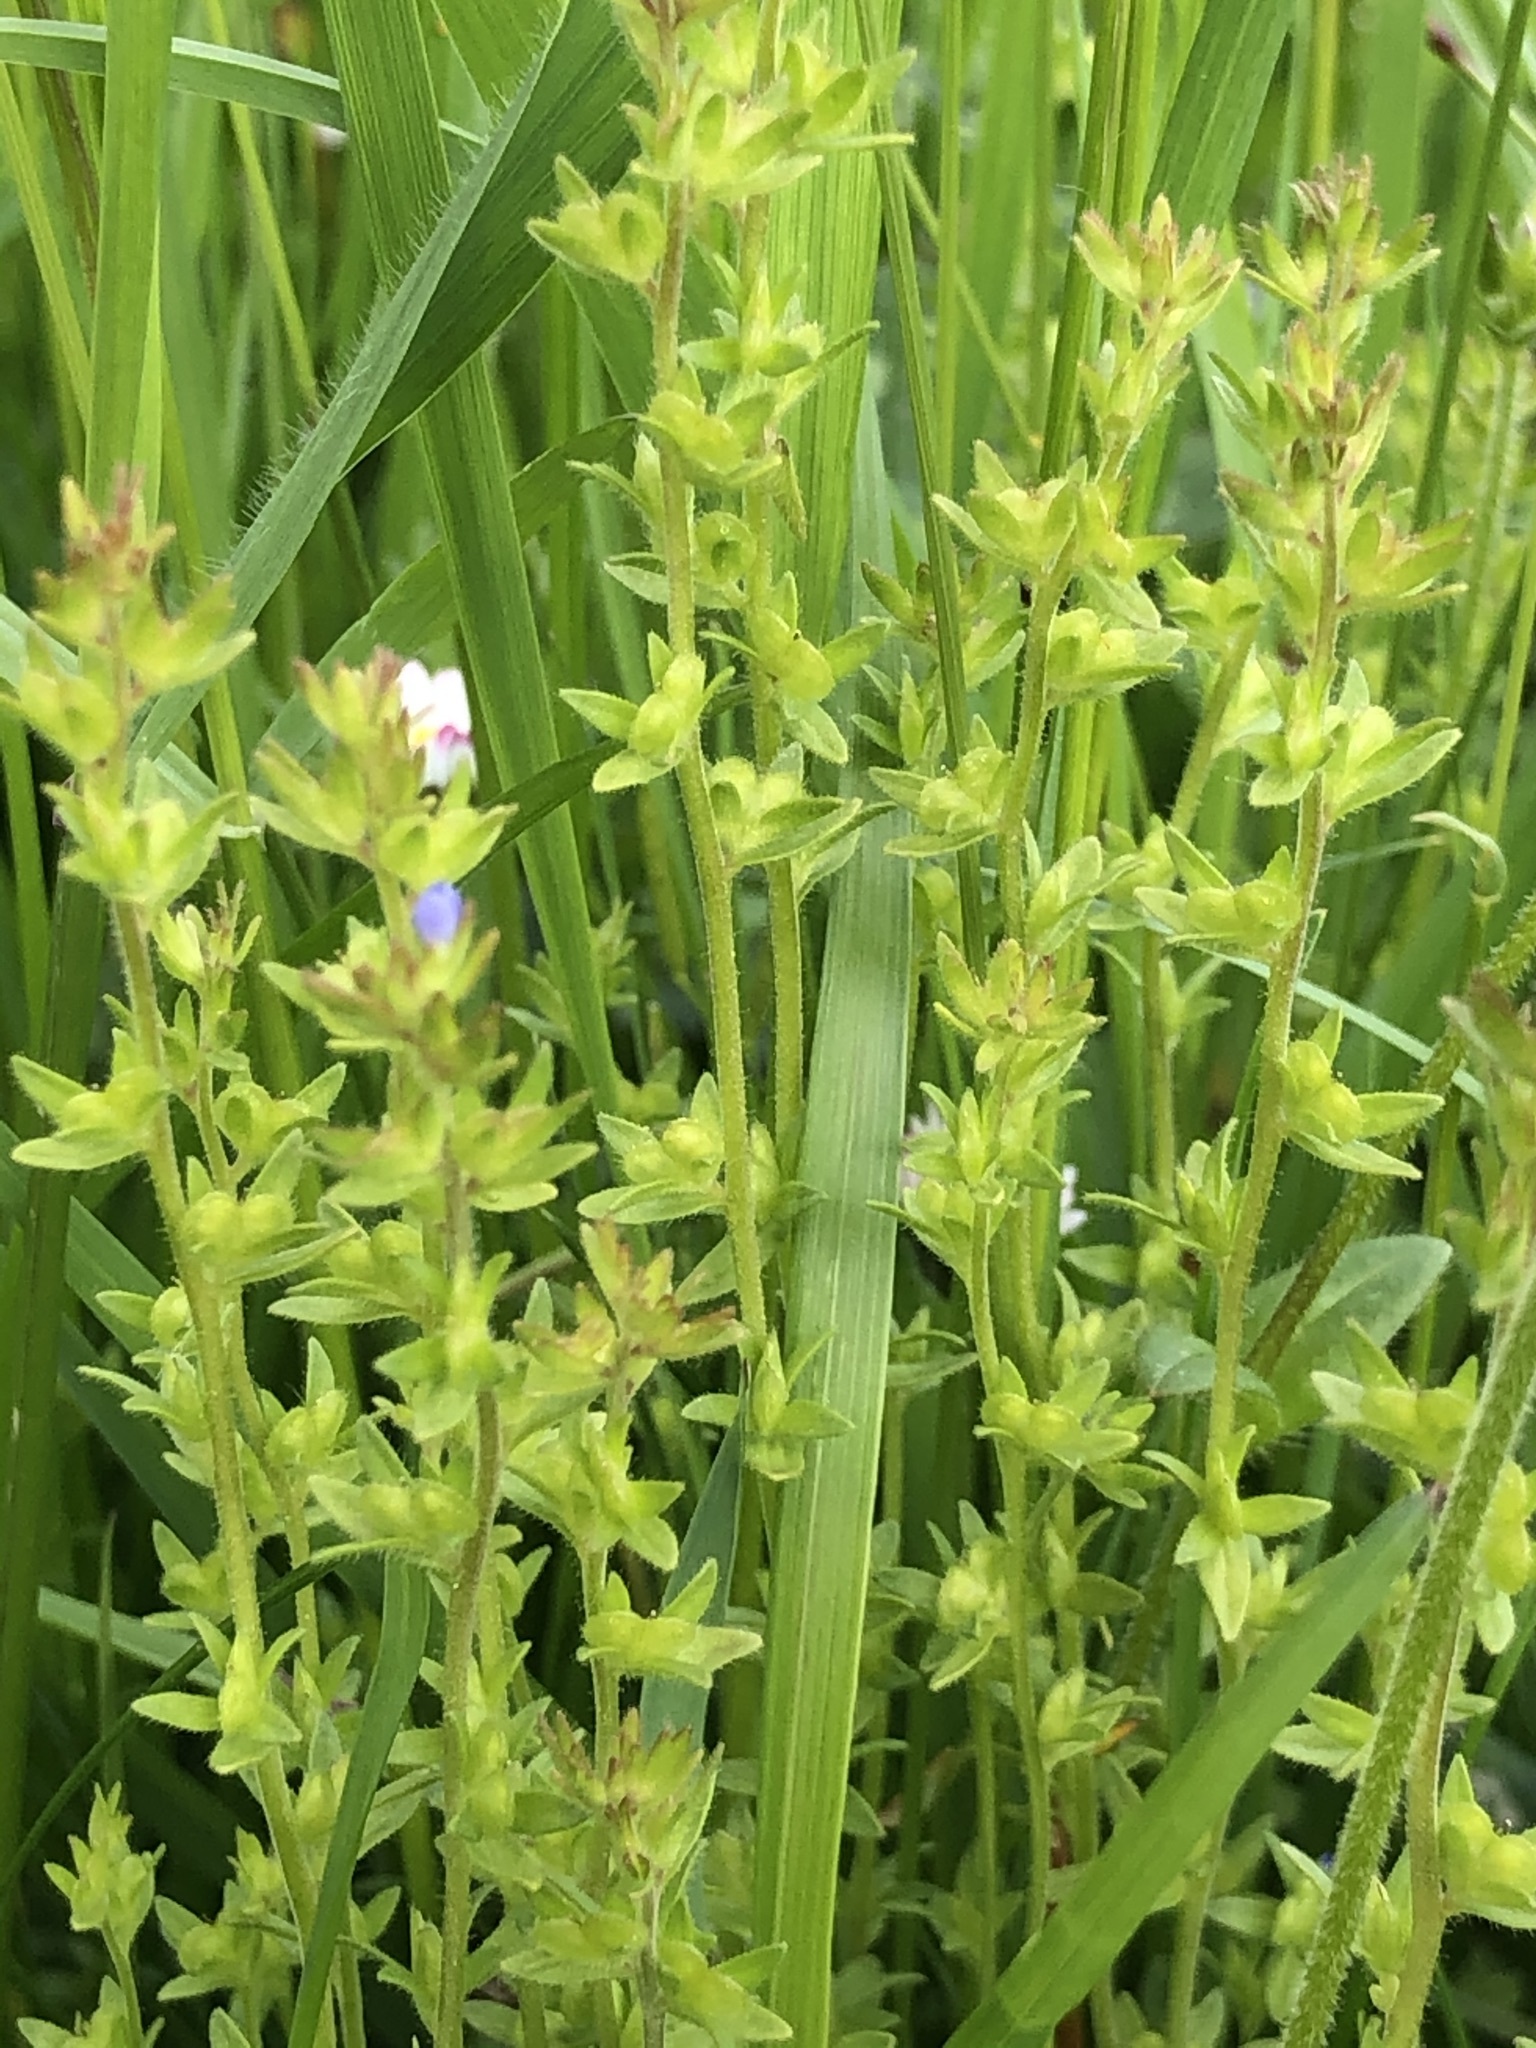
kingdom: Plantae
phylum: Tracheophyta
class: Magnoliopsida
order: Lamiales
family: Plantaginaceae
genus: Veronica
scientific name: Veronica arvensis
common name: Corn speedwell
